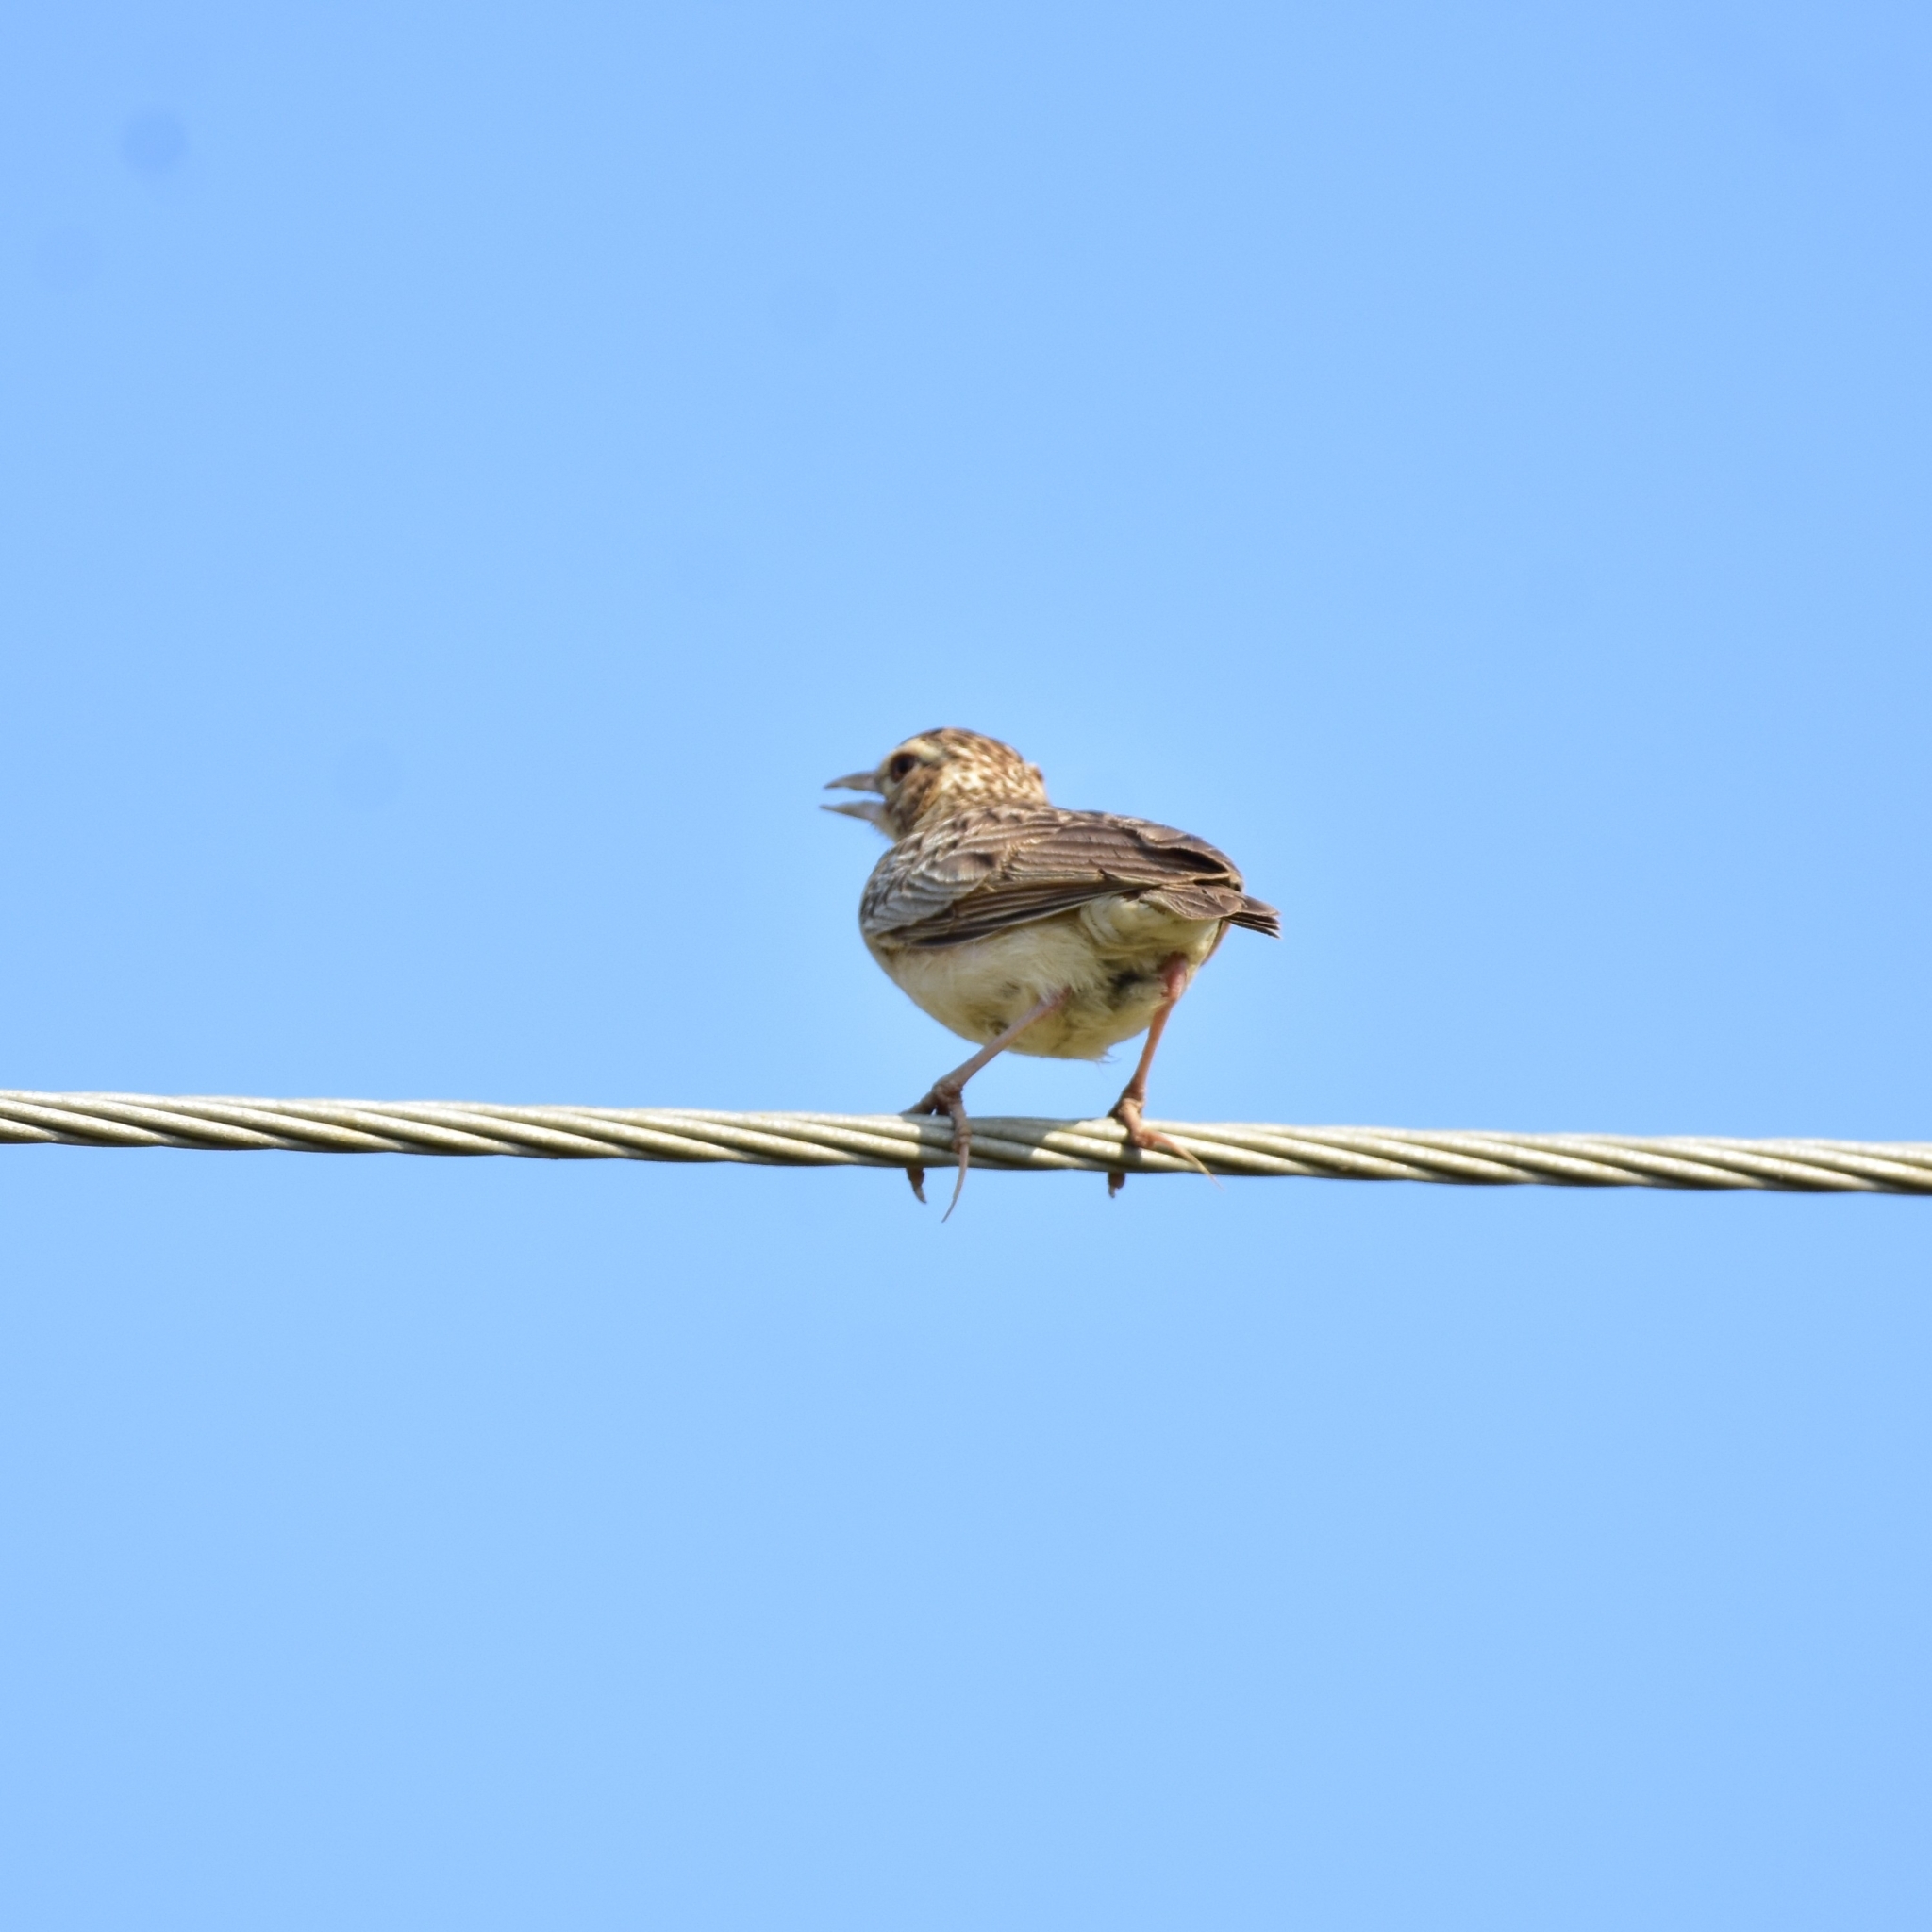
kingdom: Animalia
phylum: Chordata
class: Aves
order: Passeriformes
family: Alaudidae
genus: Mirafra
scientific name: Mirafra affinis
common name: Jerdon's bushlark
